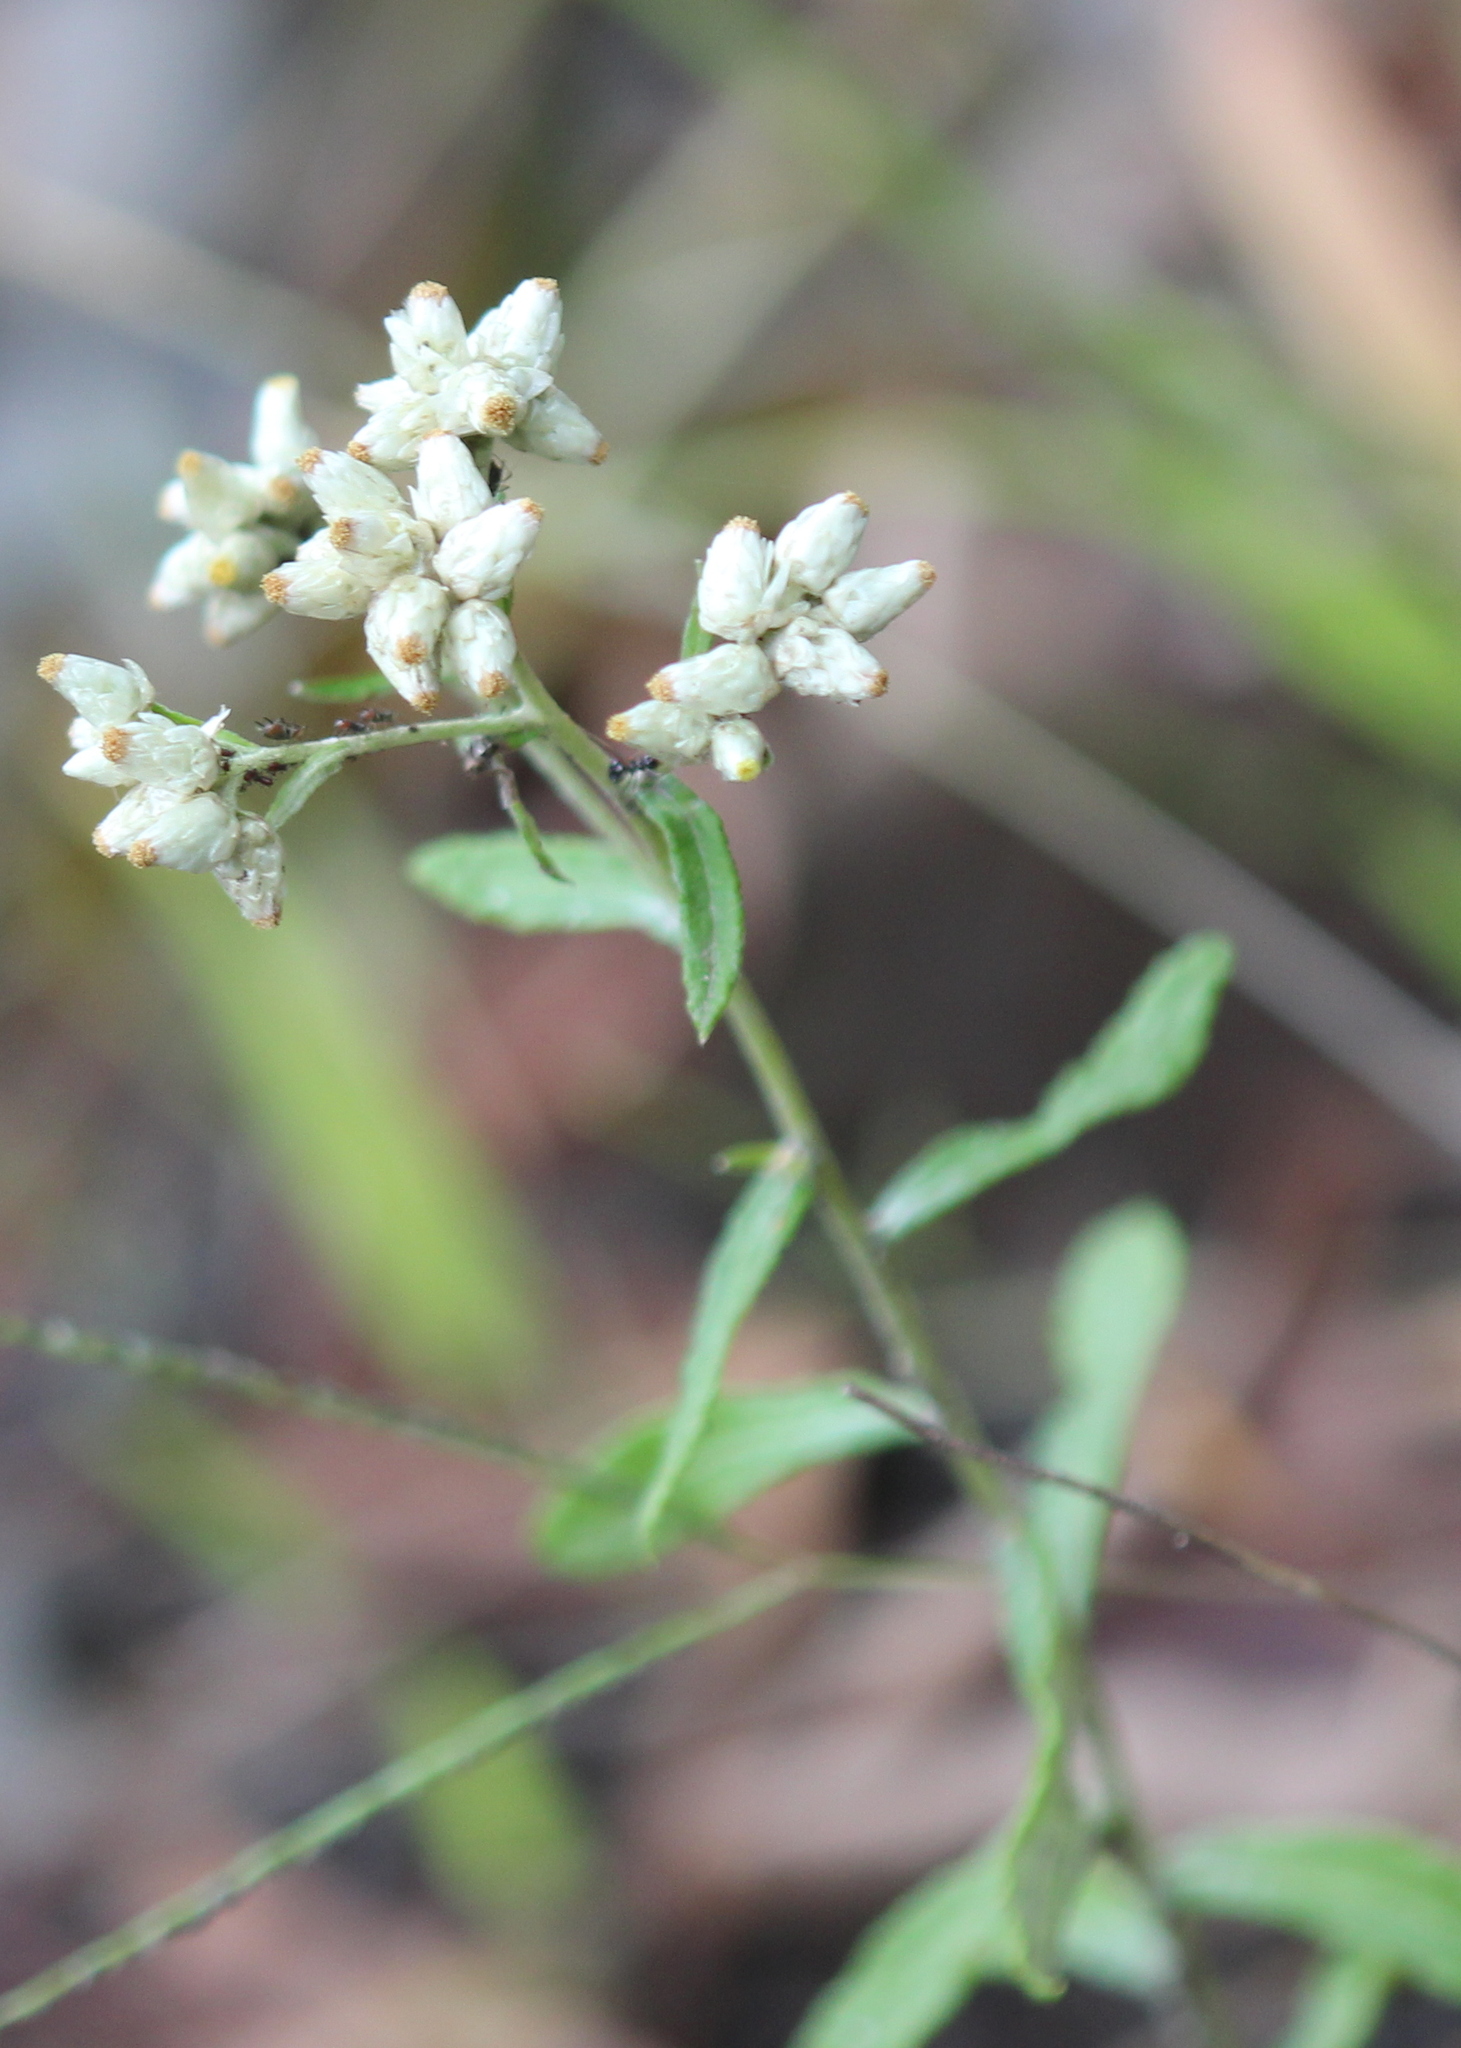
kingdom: Plantae
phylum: Tracheophyta
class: Magnoliopsida
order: Asterales
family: Asteraceae
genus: Pseudognaphalium
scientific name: Pseudognaphalium obtusifolium
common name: Eastern rabbit-tobacco
